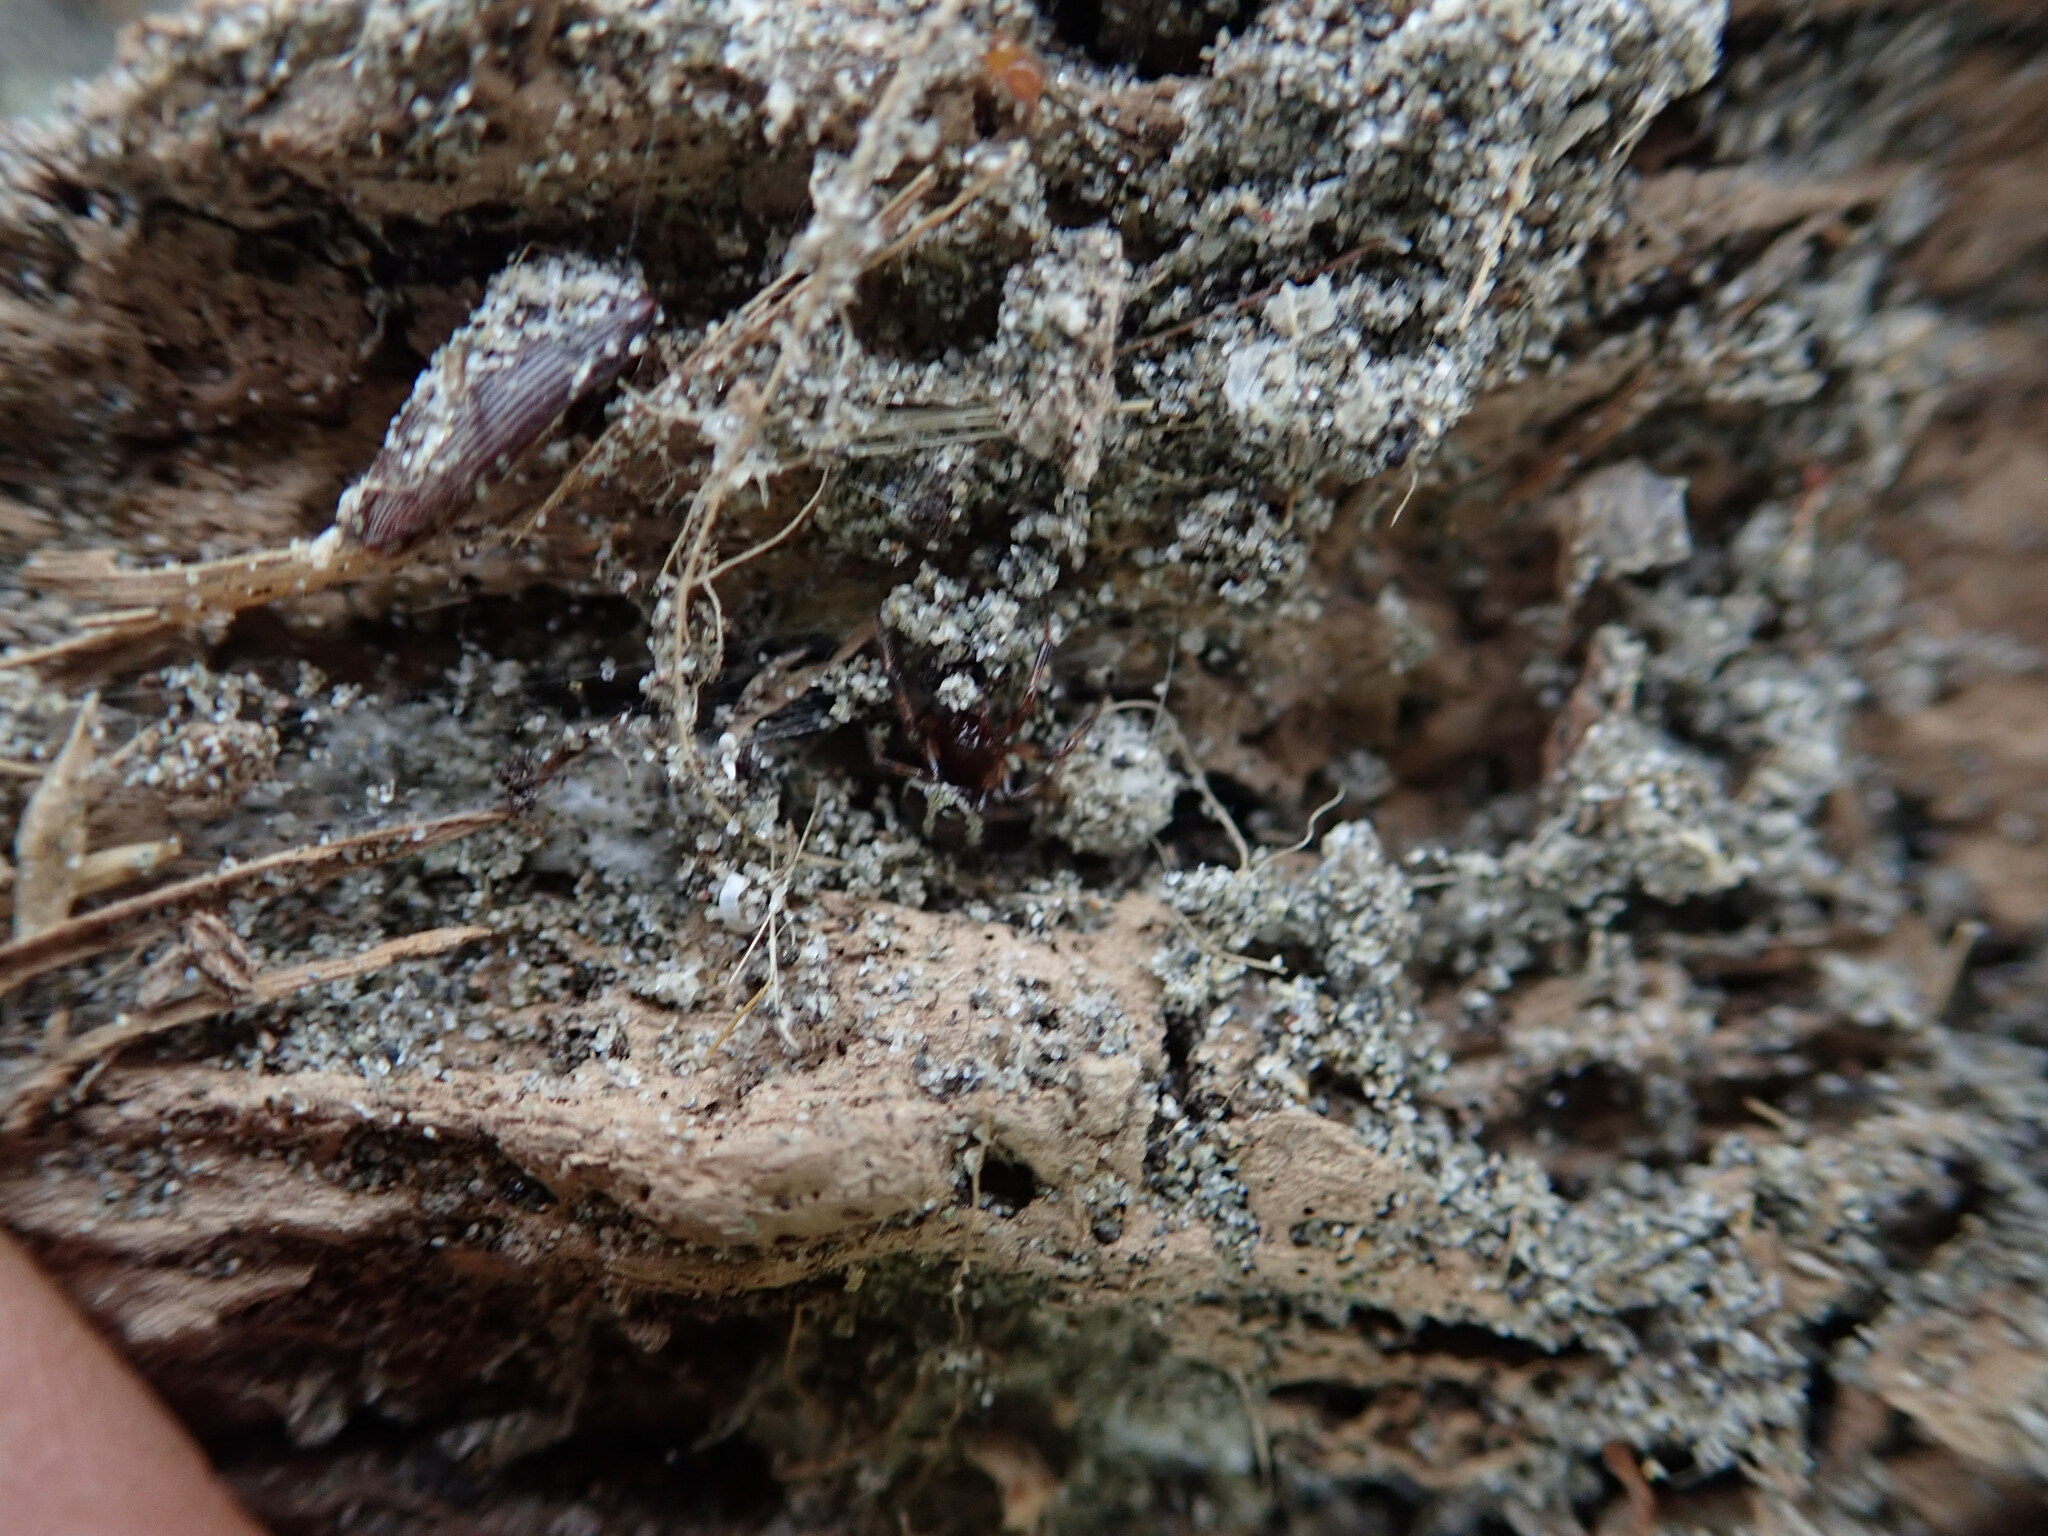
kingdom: Animalia
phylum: Arthropoda
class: Arachnida
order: Araneae
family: Theridiidae
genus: Steatoda
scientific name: Steatoda lepida
